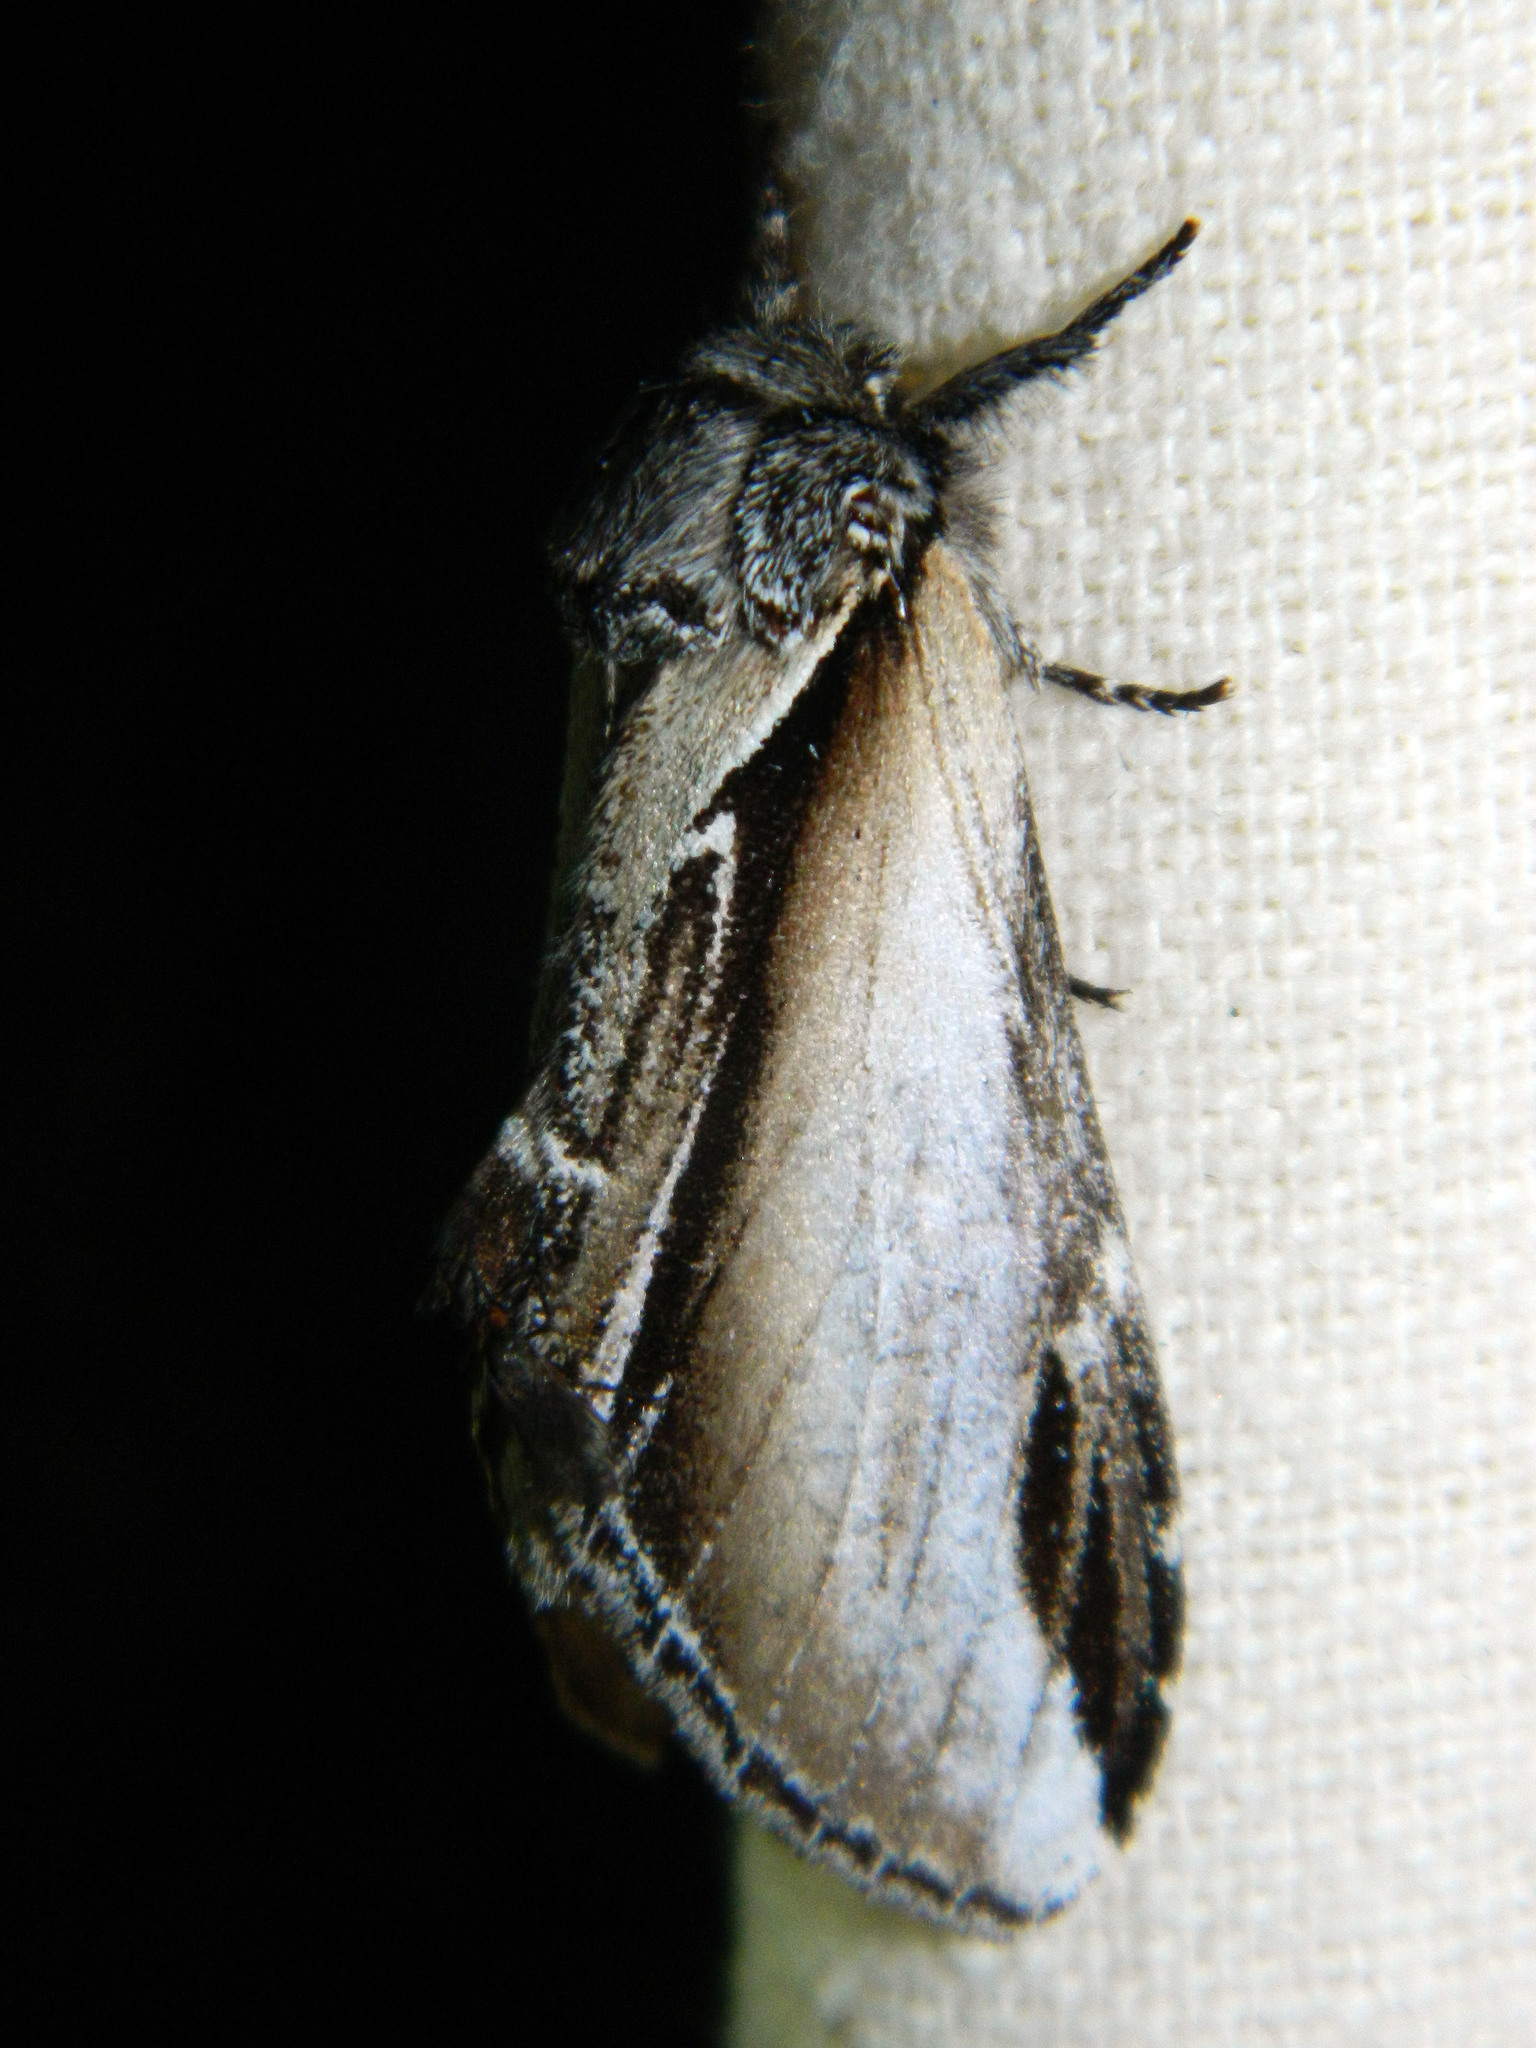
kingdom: Animalia
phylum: Arthropoda
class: Insecta
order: Lepidoptera
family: Notodontidae
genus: Pheosia
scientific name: Pheosia rimosa
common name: Black-rimmed prominent
